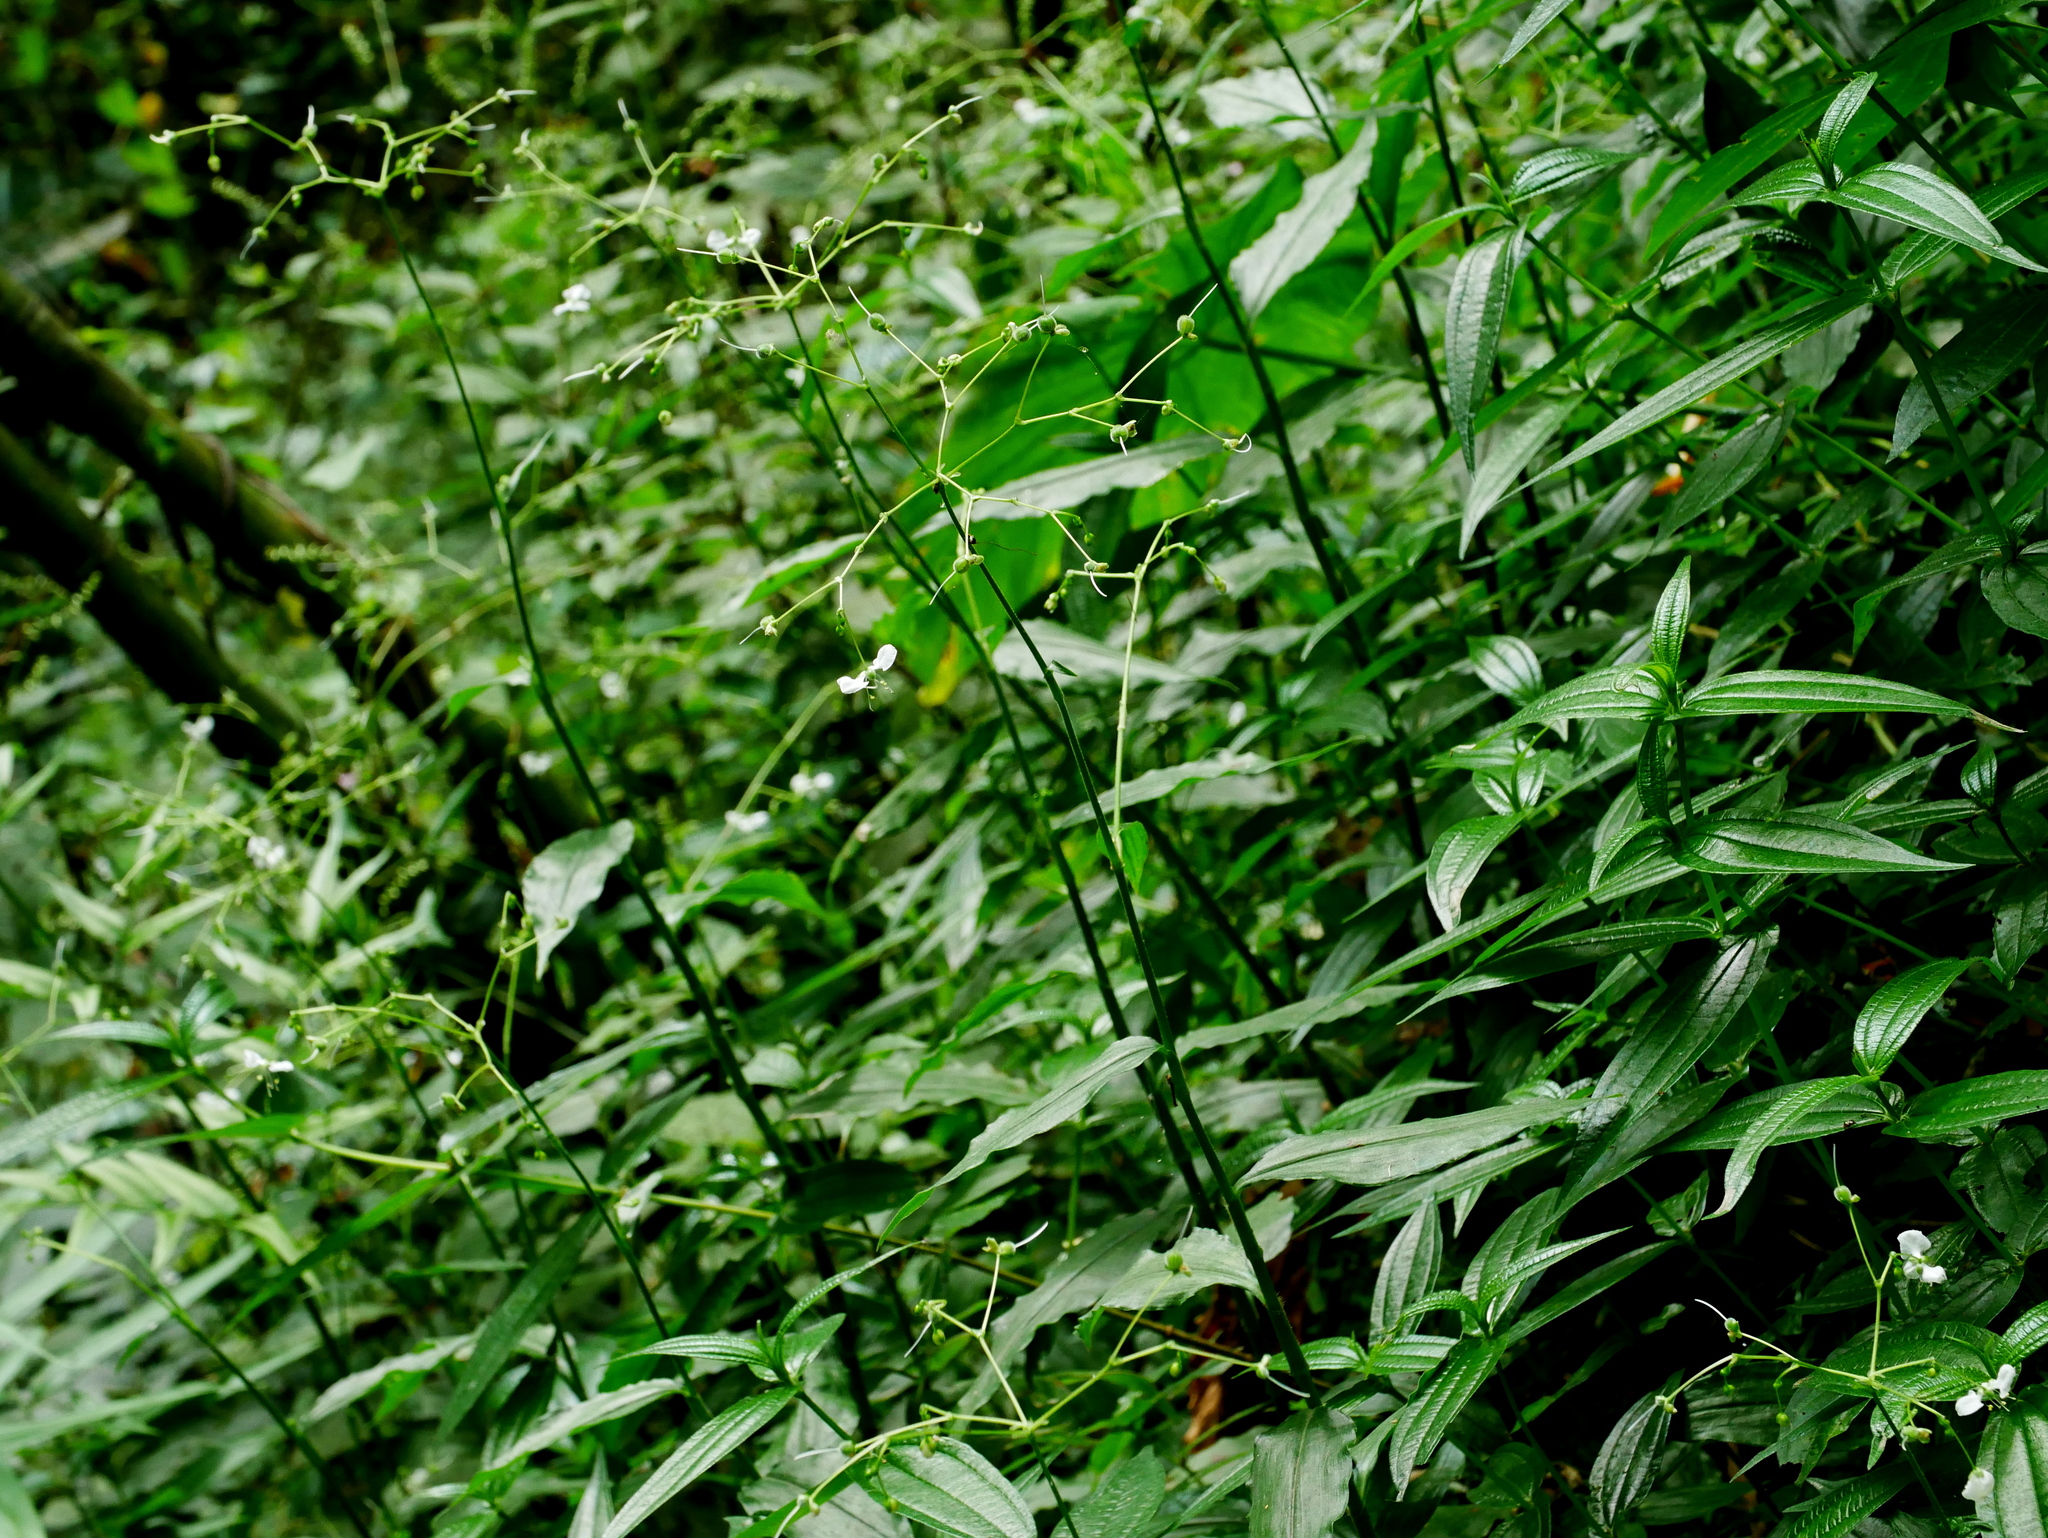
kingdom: Plantae
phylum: Tracheophyta
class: Liliopsida
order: Commelinales
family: Commelinaceae
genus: Rhopalephora
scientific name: Rhopalephora scaberrima
